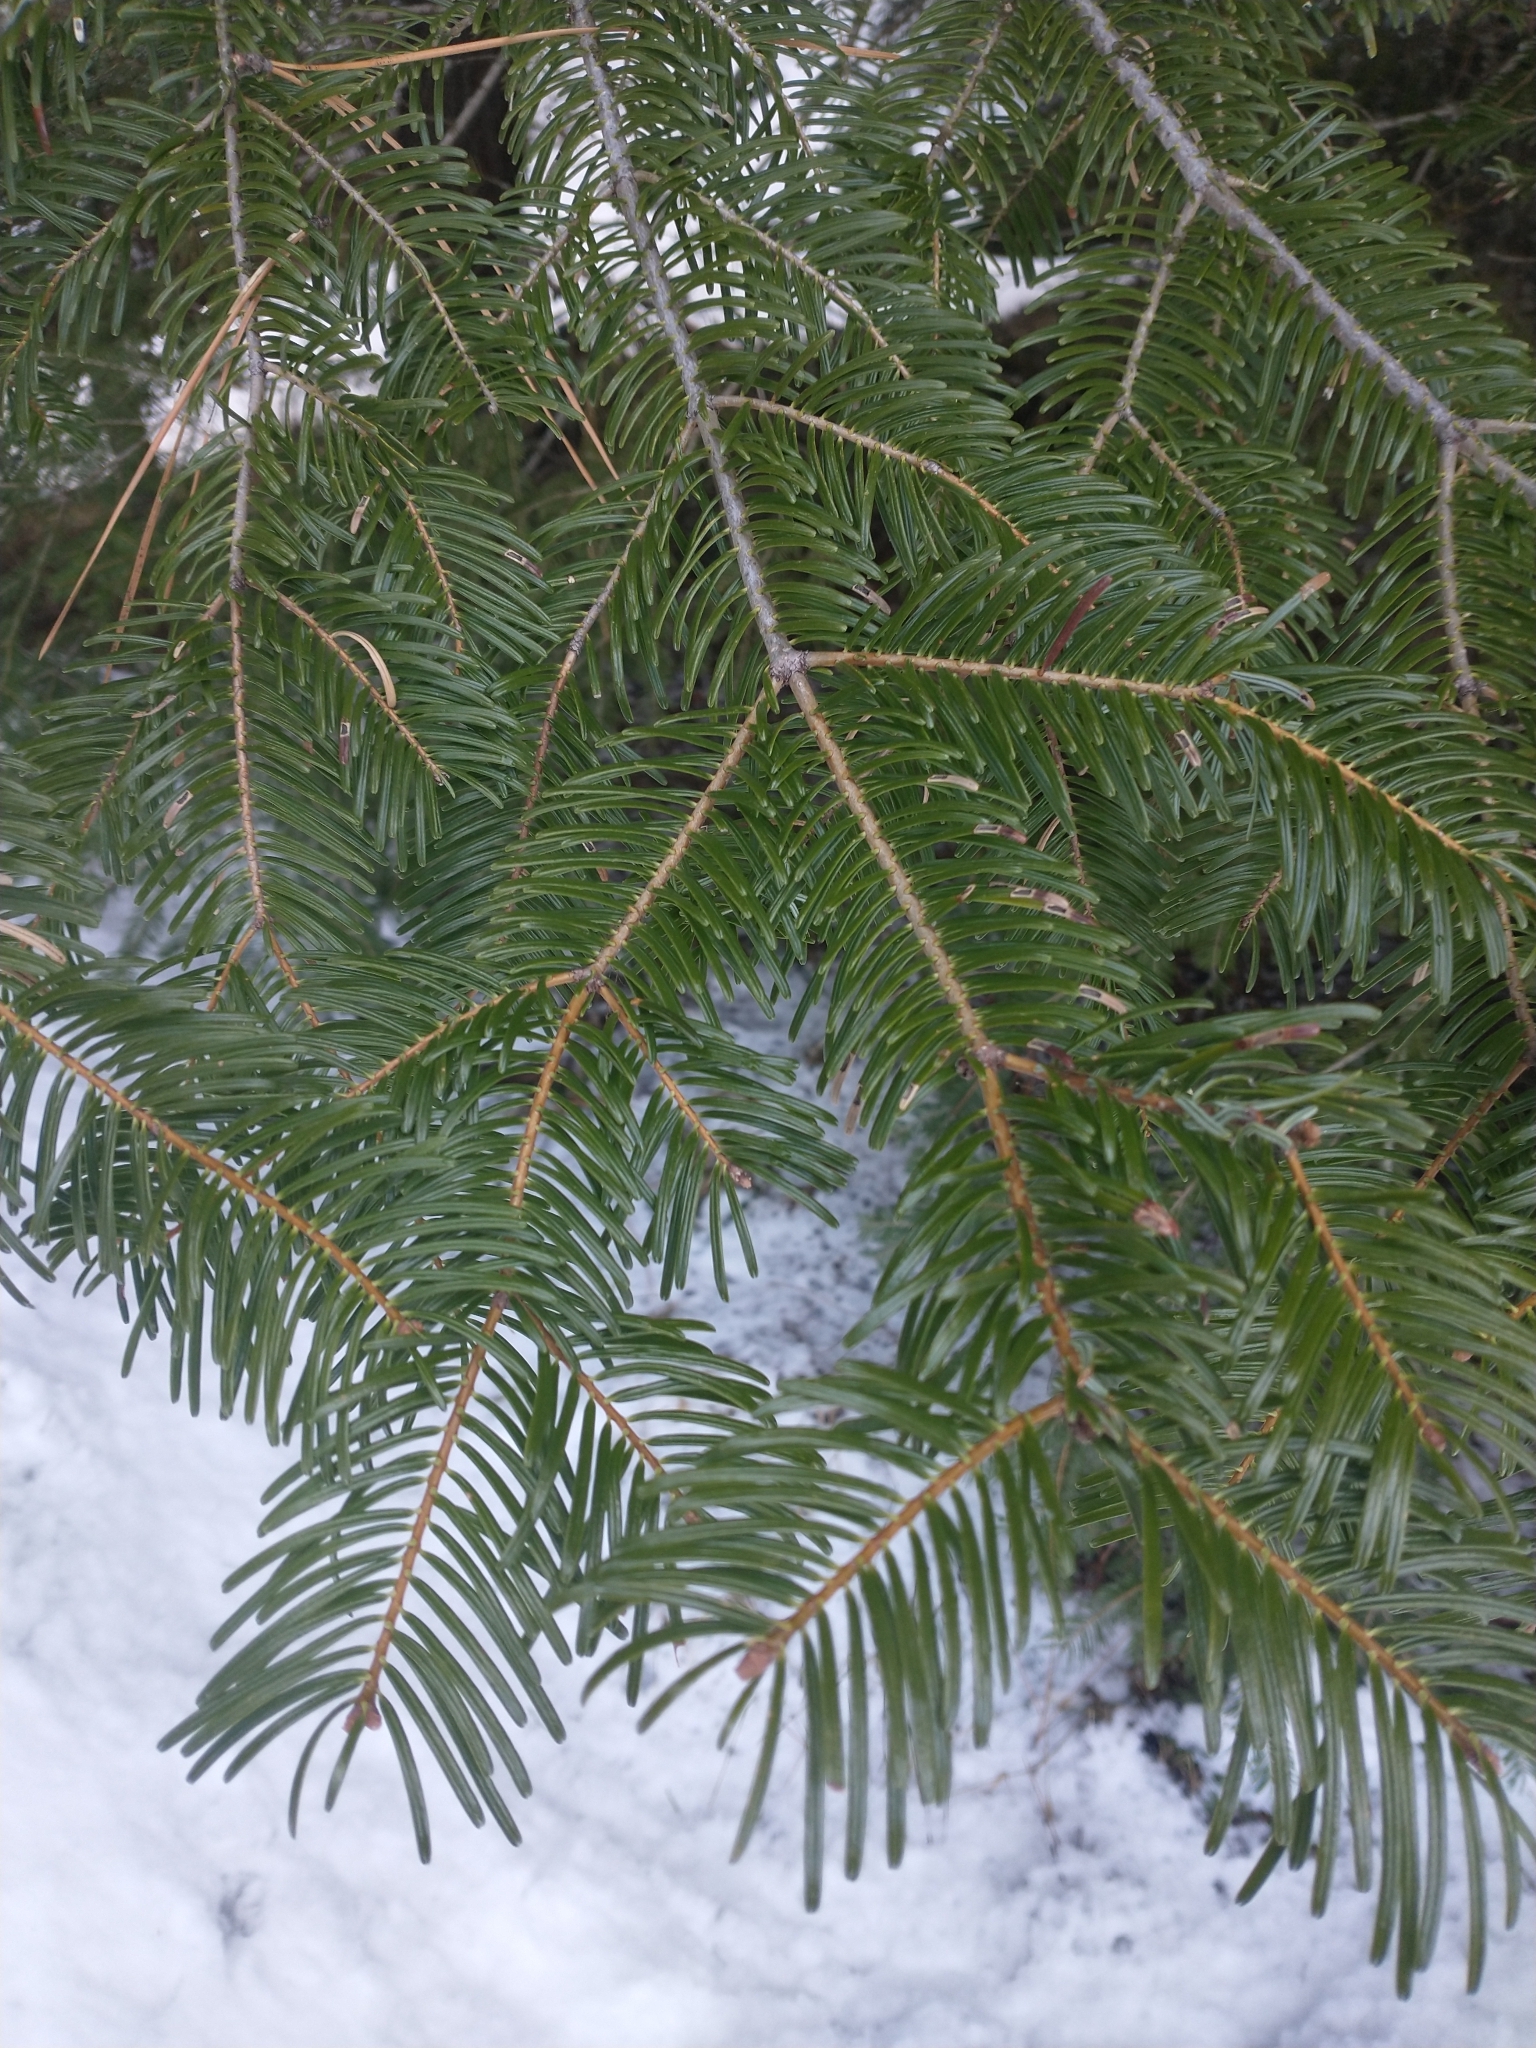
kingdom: Plantae
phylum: Tracheophyta
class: Pinopsida
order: Pinales
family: Pinaceae
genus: Abies
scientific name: Abies concolor
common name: Colorado fir
